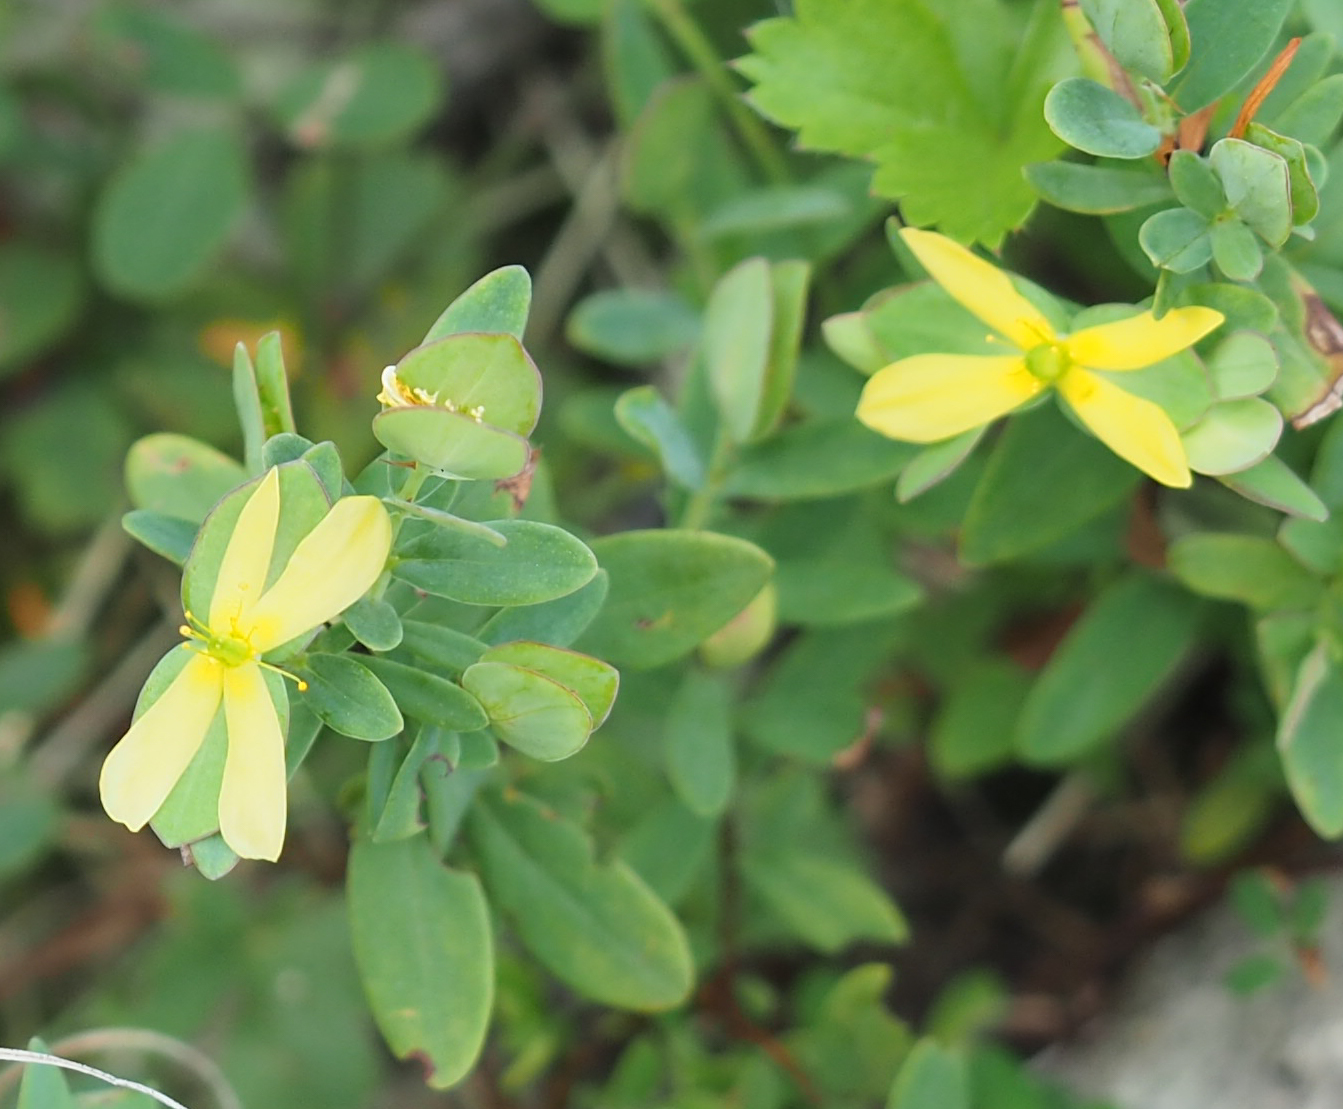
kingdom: Plantae
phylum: Tracheophyta
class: Magnoliopsida
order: Malpighiales
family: Hypericaceae
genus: Hypericum
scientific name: Hypericum hypericoides
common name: St. andrew's cross
